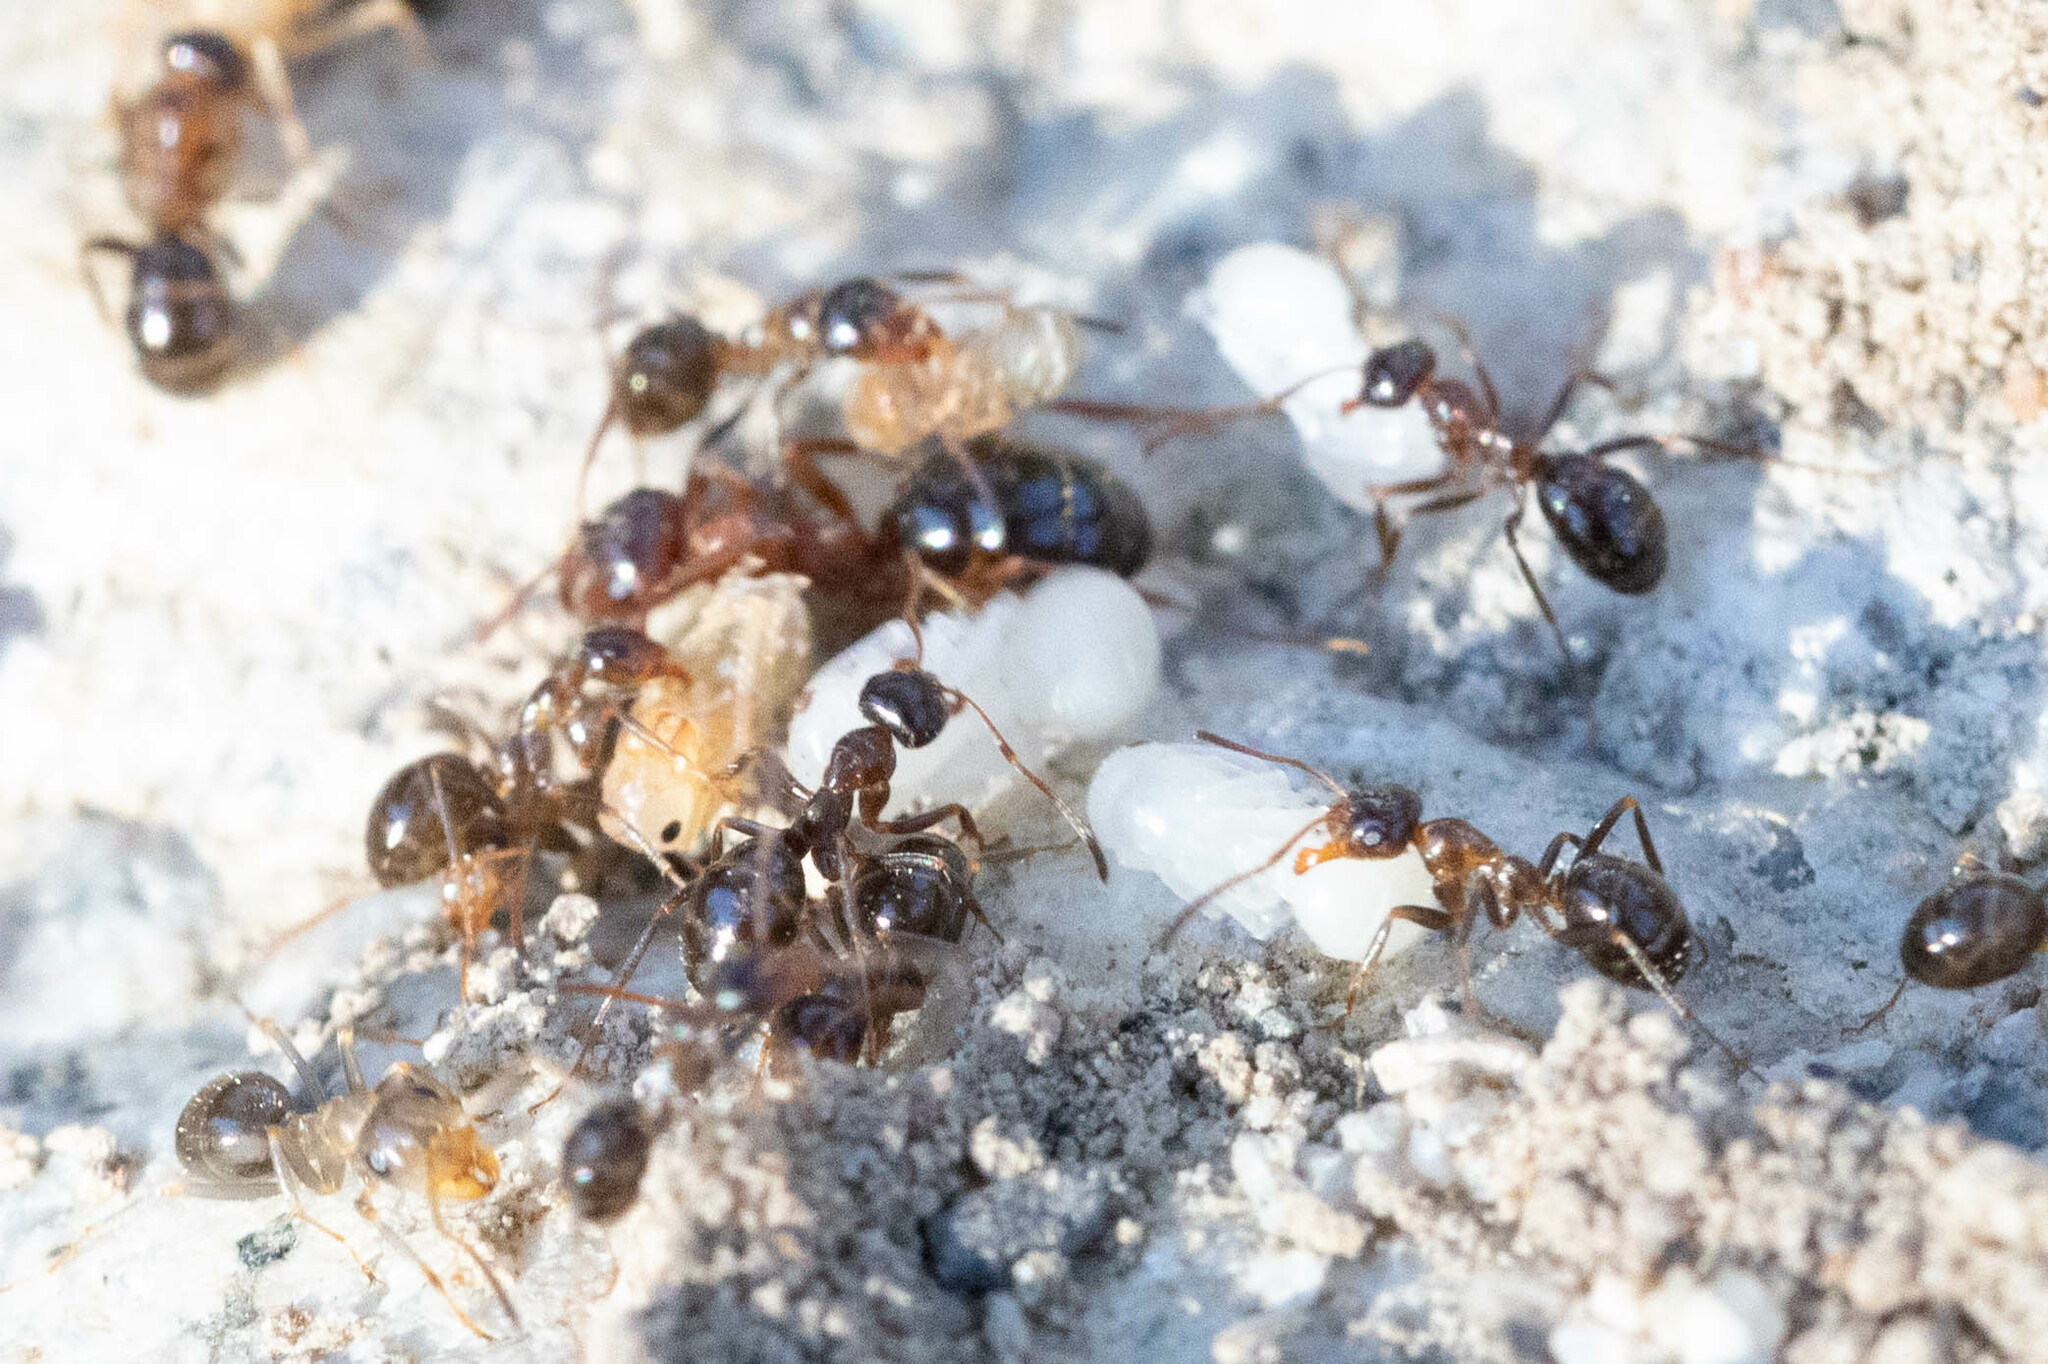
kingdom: Animalia
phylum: Arthropoda
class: Insecta
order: Hymenoptera
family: Formicidae
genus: Formica
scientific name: Formica subpolita
